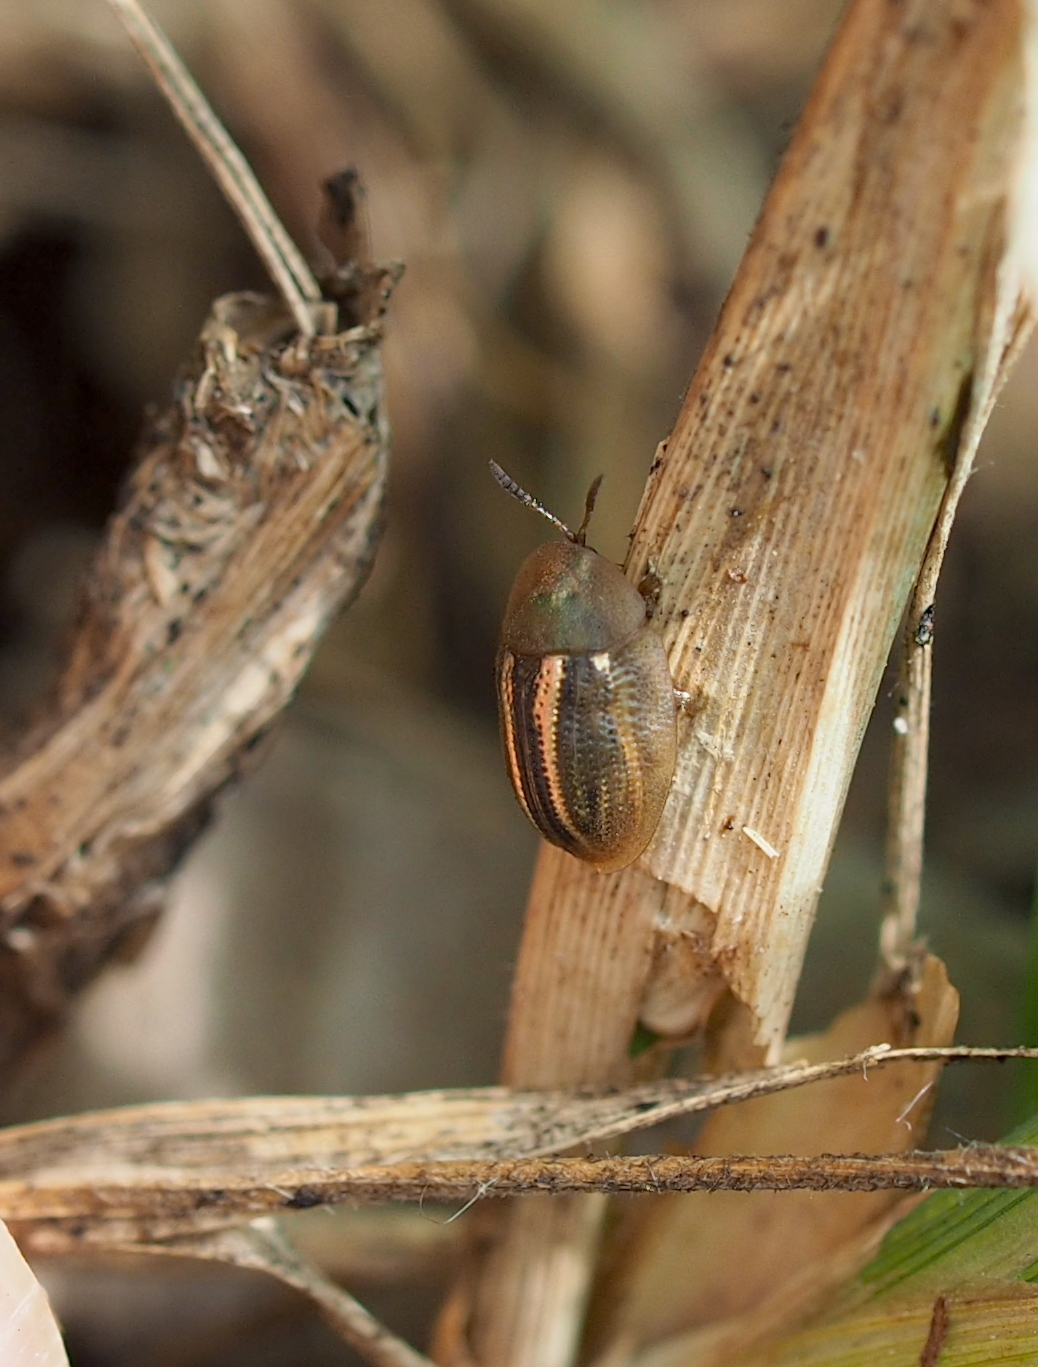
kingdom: Animalia
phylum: Arthropoda
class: Insecta
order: Coleoptera
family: Chrysomelidae
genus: Cassida
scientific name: Cassida nobilis
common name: Leaf beetle
